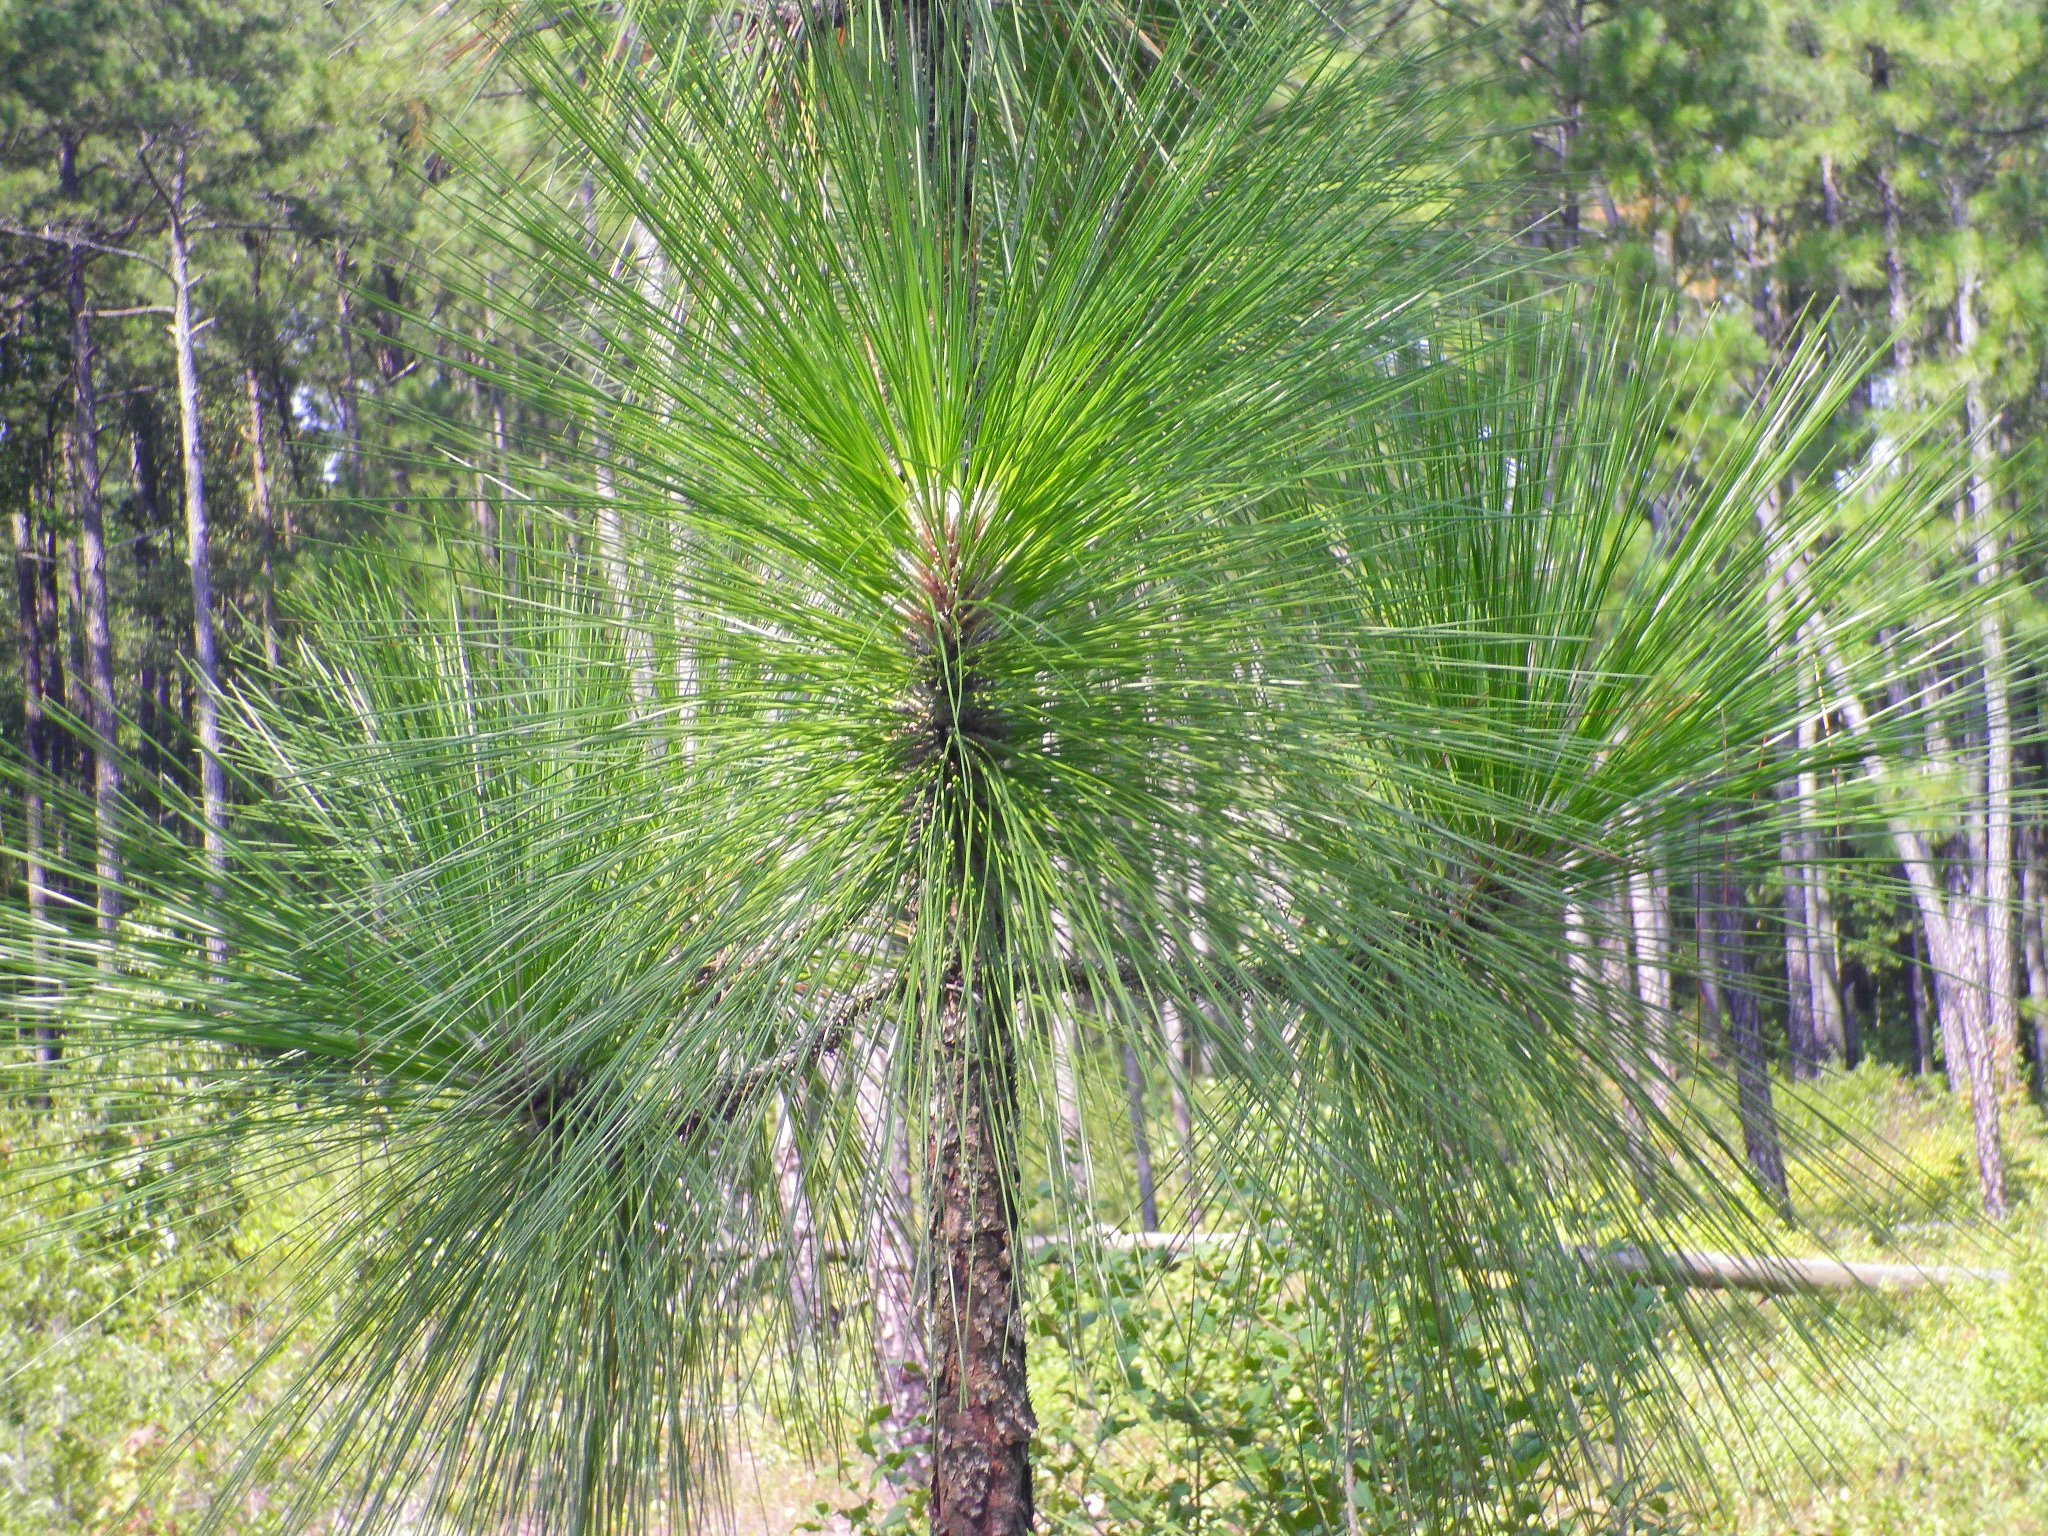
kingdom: Plantae
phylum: Tracheophyta
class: Pinopsida
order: Pinales
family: Pinaceae
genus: Pinus
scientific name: Pinus palustris
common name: Longleaf pine
